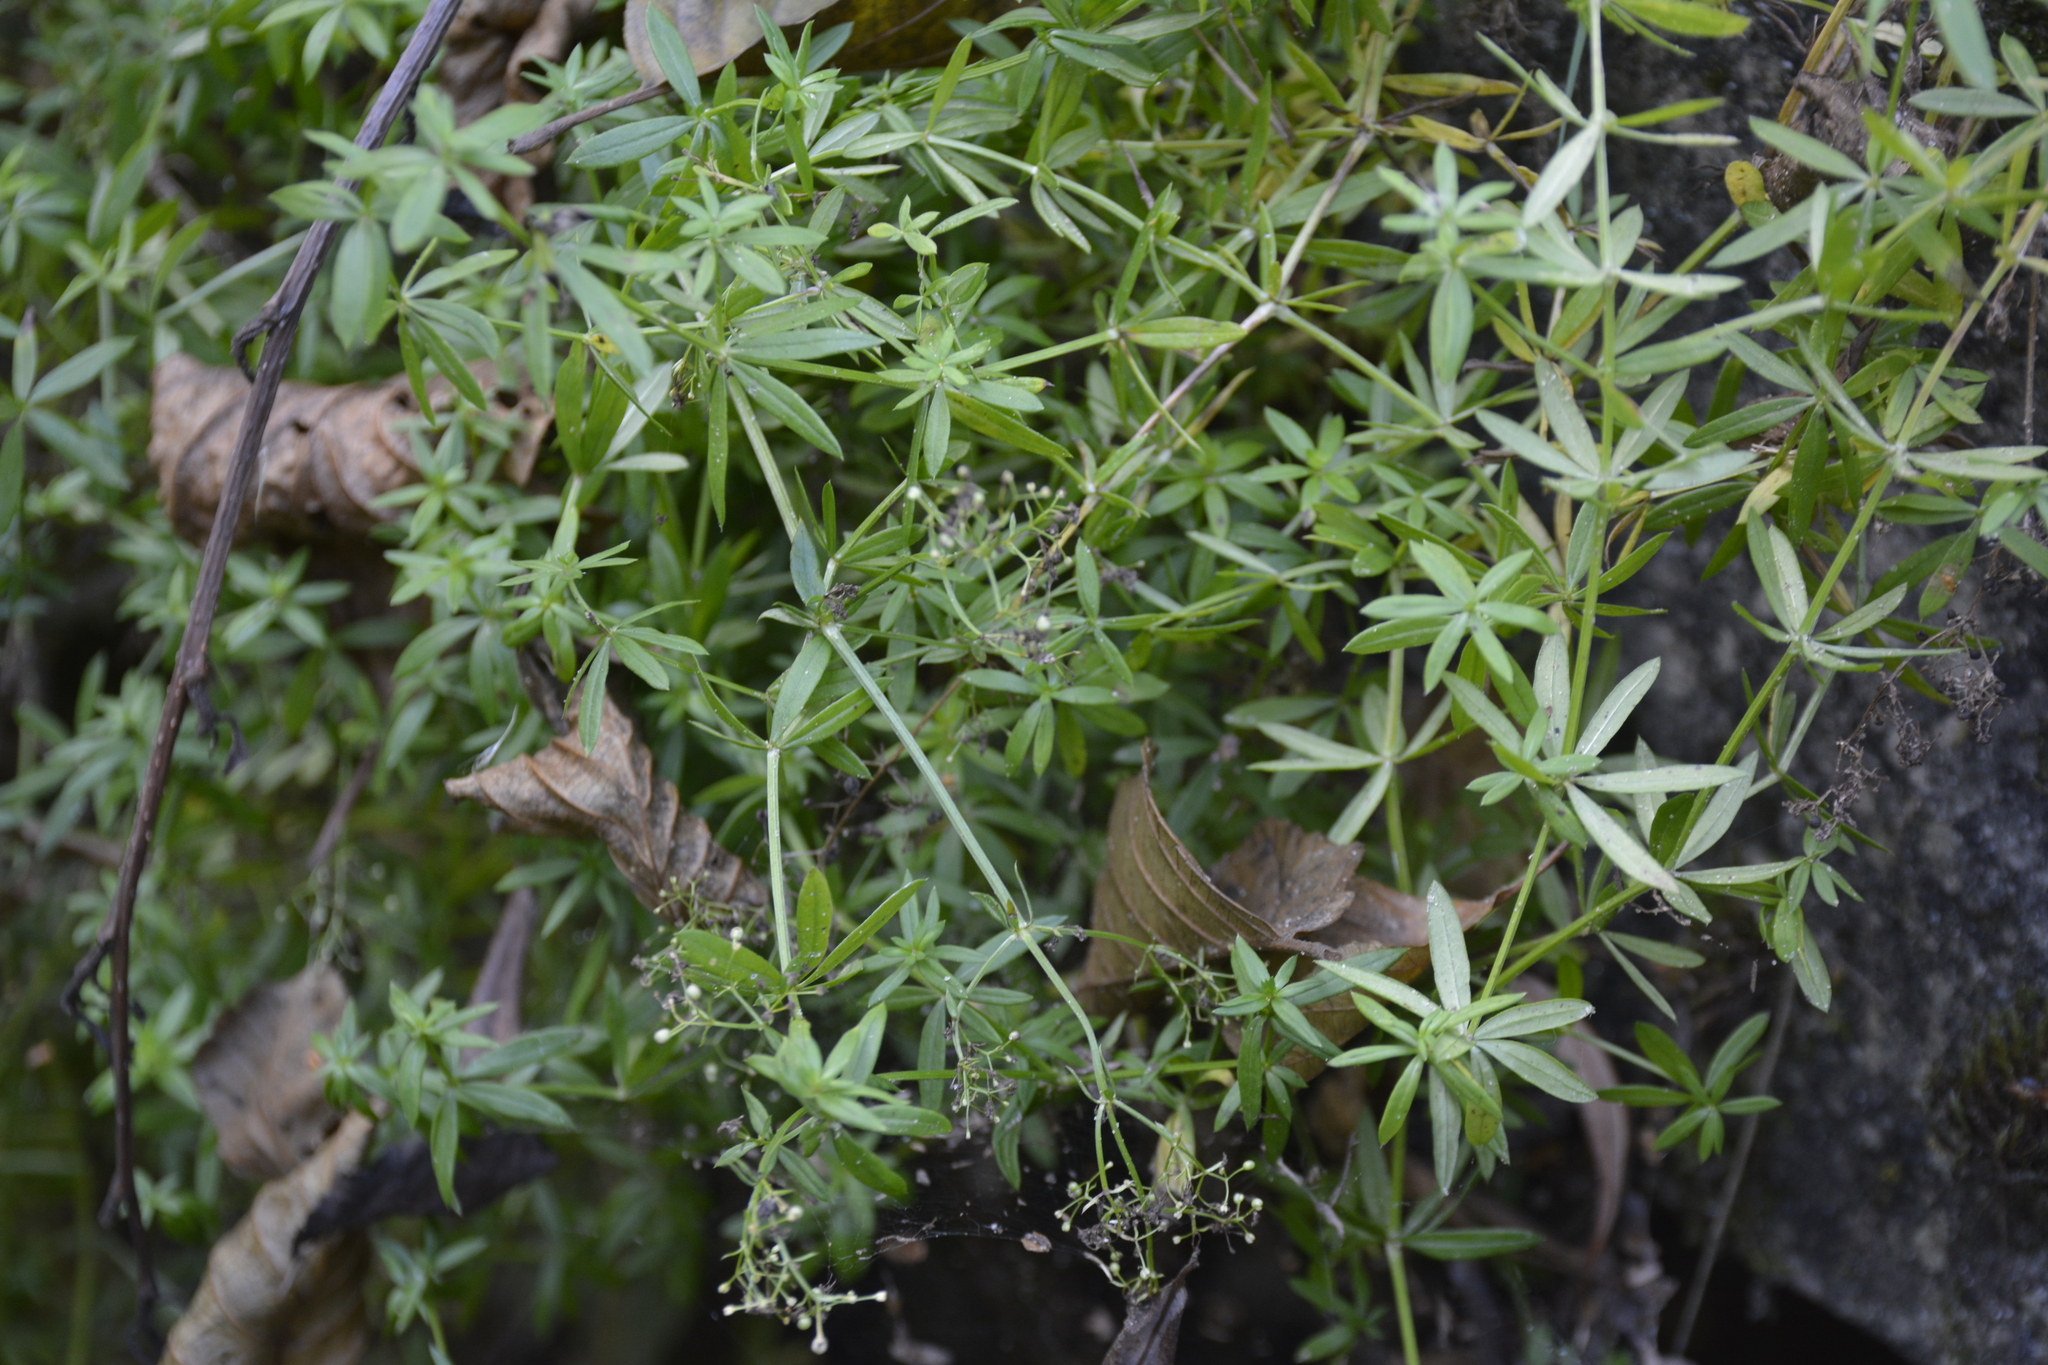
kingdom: Plantae
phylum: Tracheophyta
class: Magnoliopsida
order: Gentianales
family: Rubiaceae
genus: Galium
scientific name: Galium mollugo
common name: Hedge bedstraw
